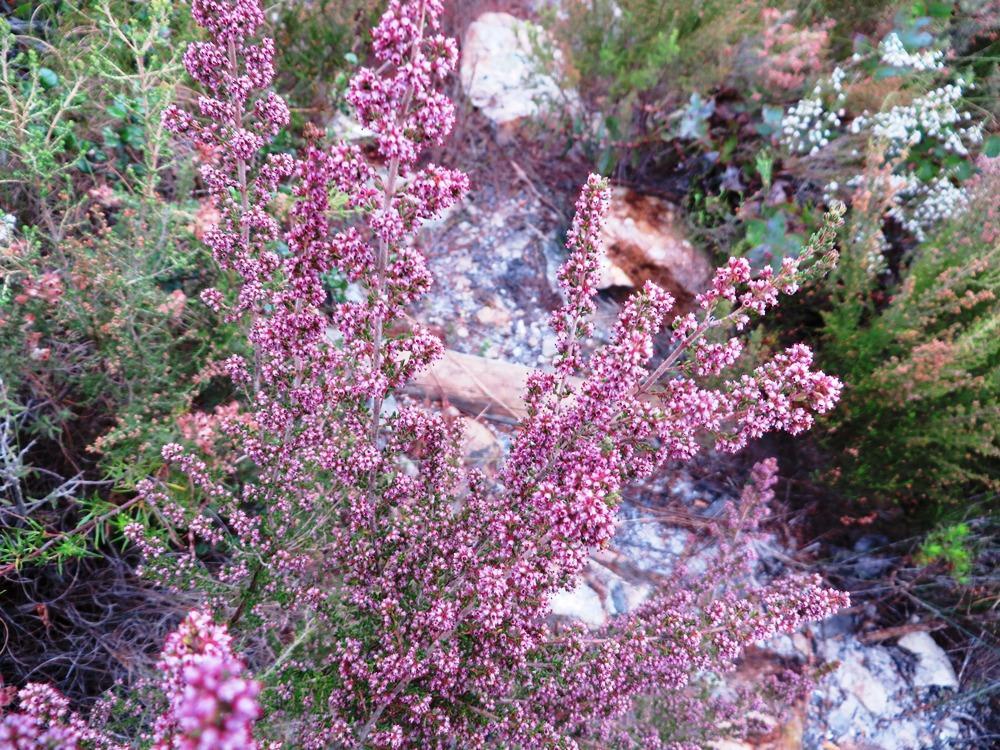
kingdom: Plantae
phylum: Tracheophyta
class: Magnoliopsida
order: Ericales
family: Ericaceae
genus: Erica
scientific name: Erica peltata
